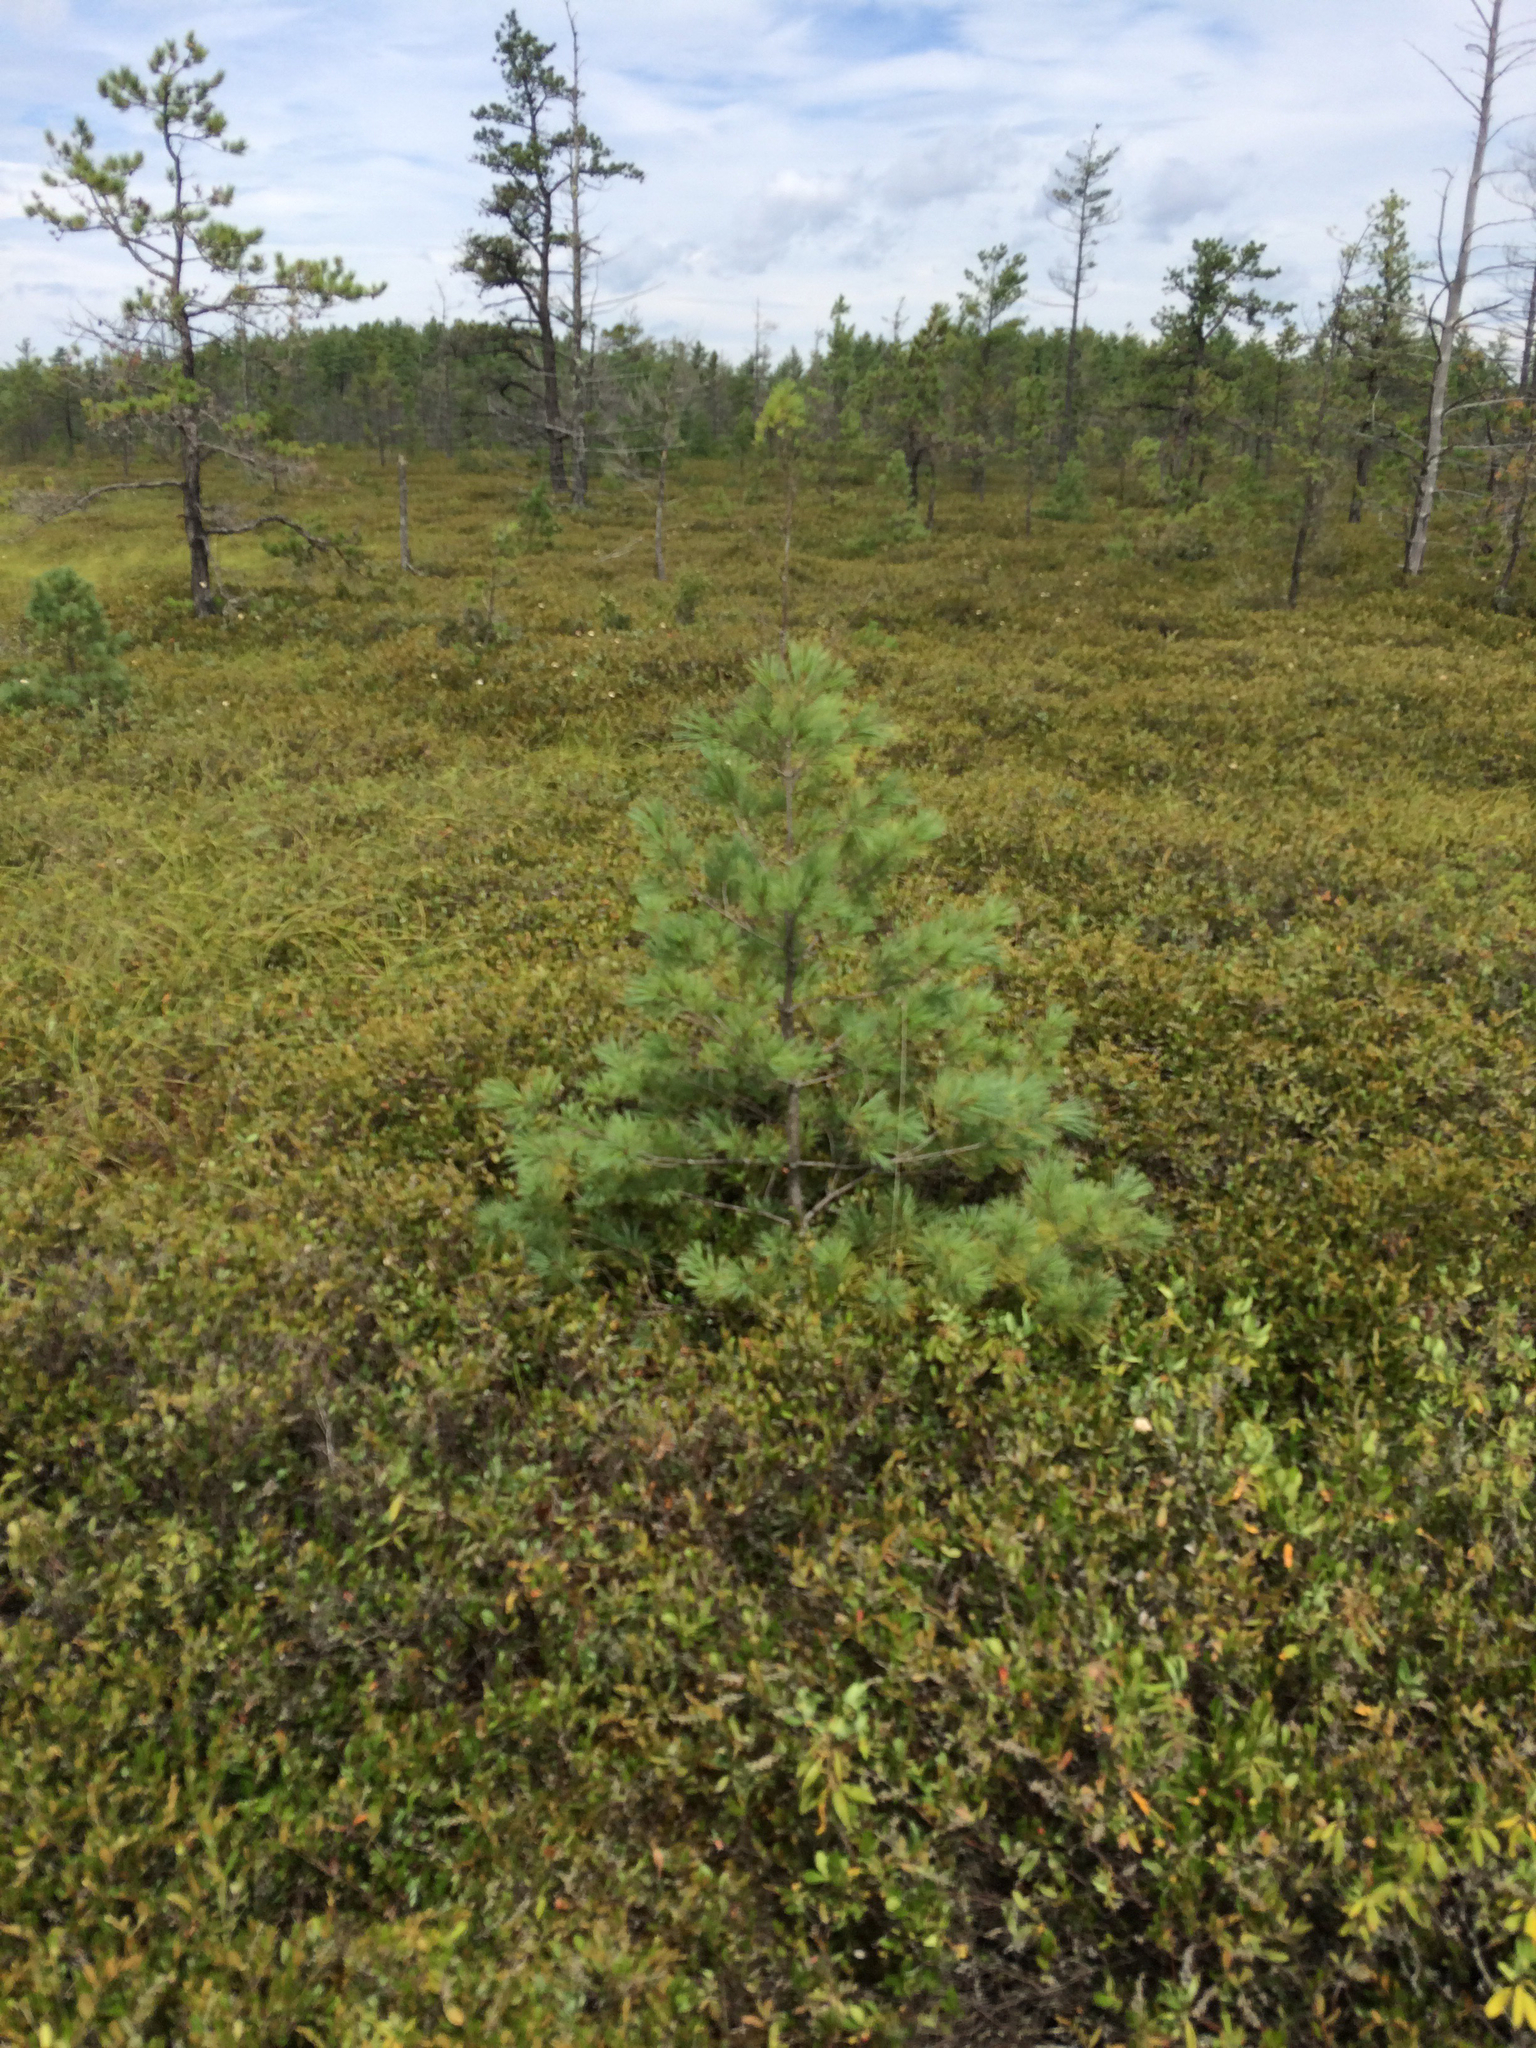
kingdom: Plantae
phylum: Tracheophyta
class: Pinopsida
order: Pinales
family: Pinaceae
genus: Pinus
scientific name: Pinus strobus
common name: Weymouth pine
